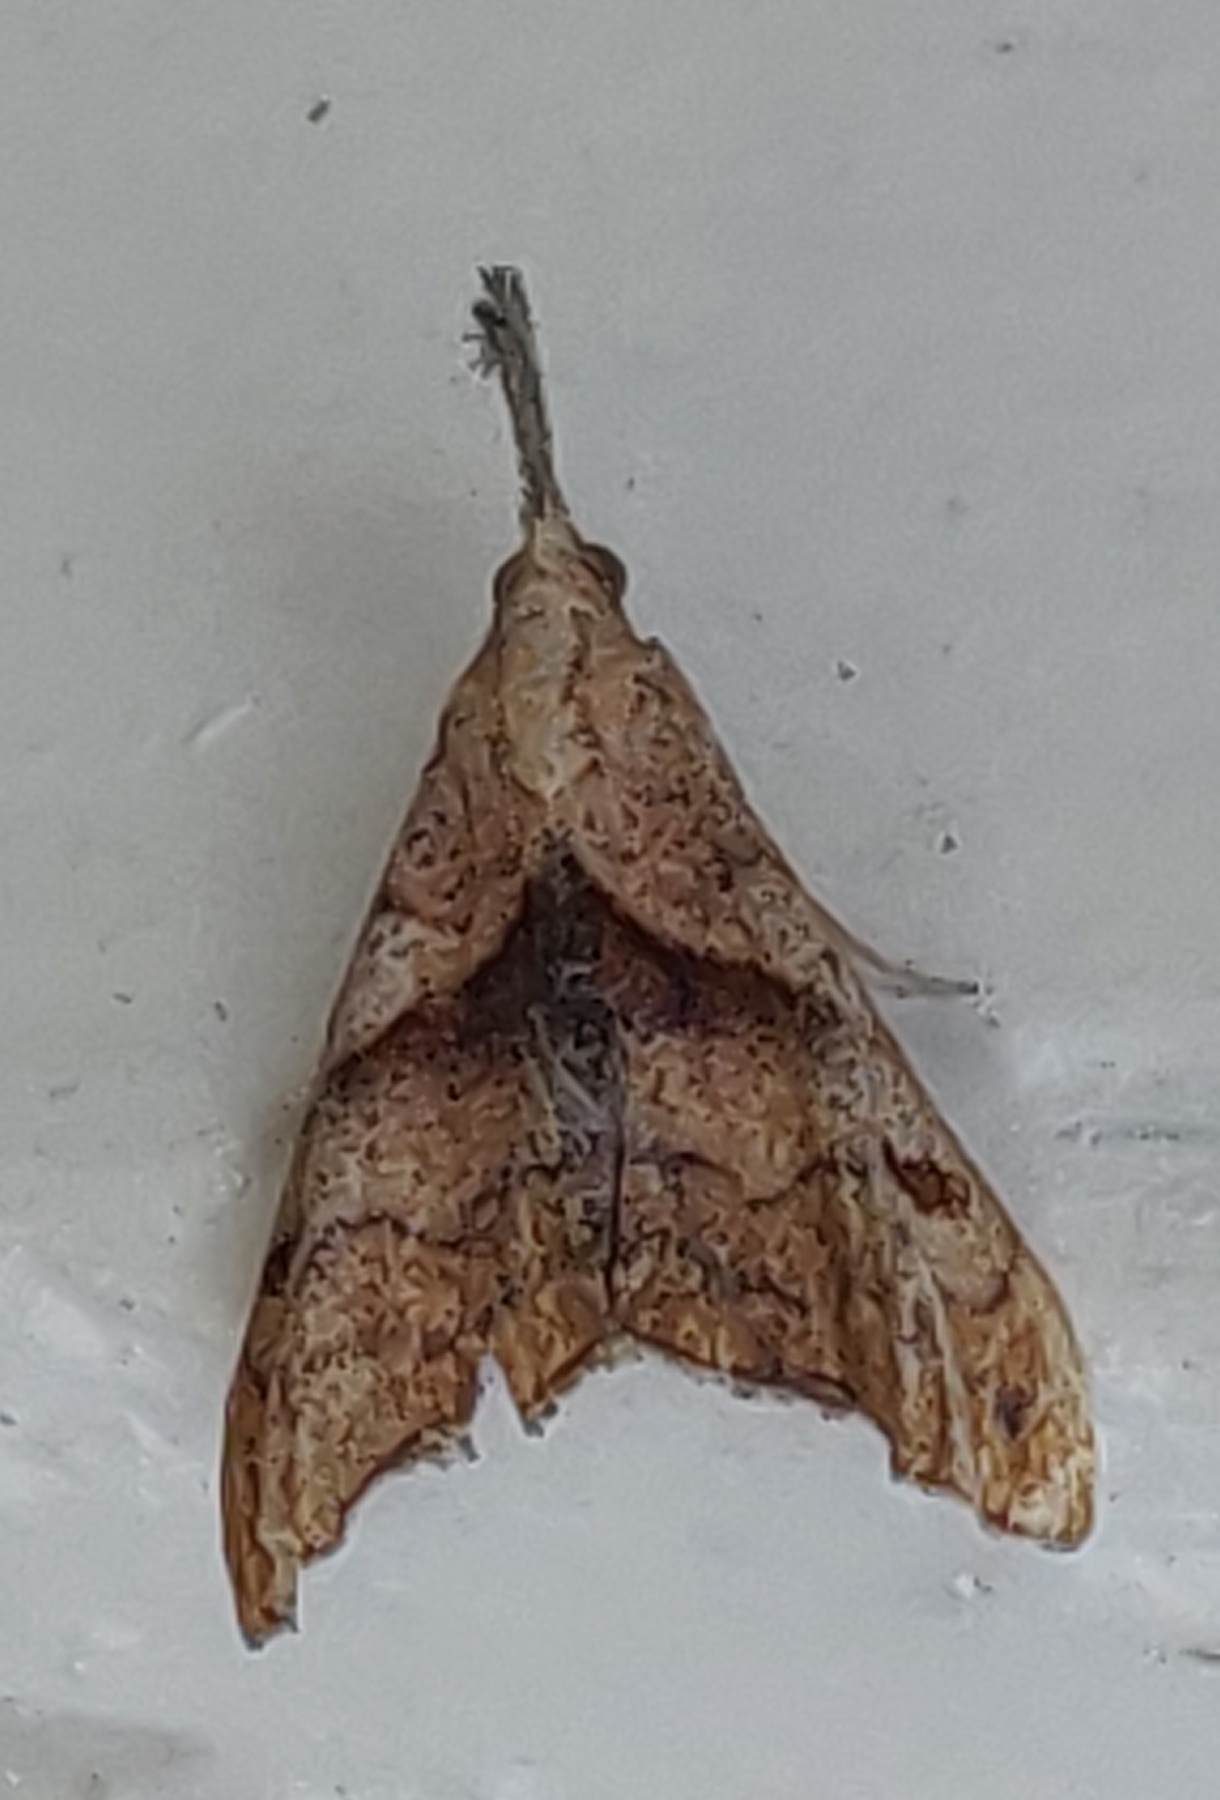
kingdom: Animalia
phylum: Arthropoda
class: Insecta
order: Lepidoptera
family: Erebidae
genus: Palthis
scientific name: Palthis angulalis
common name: Dark-spotted palthis moth
